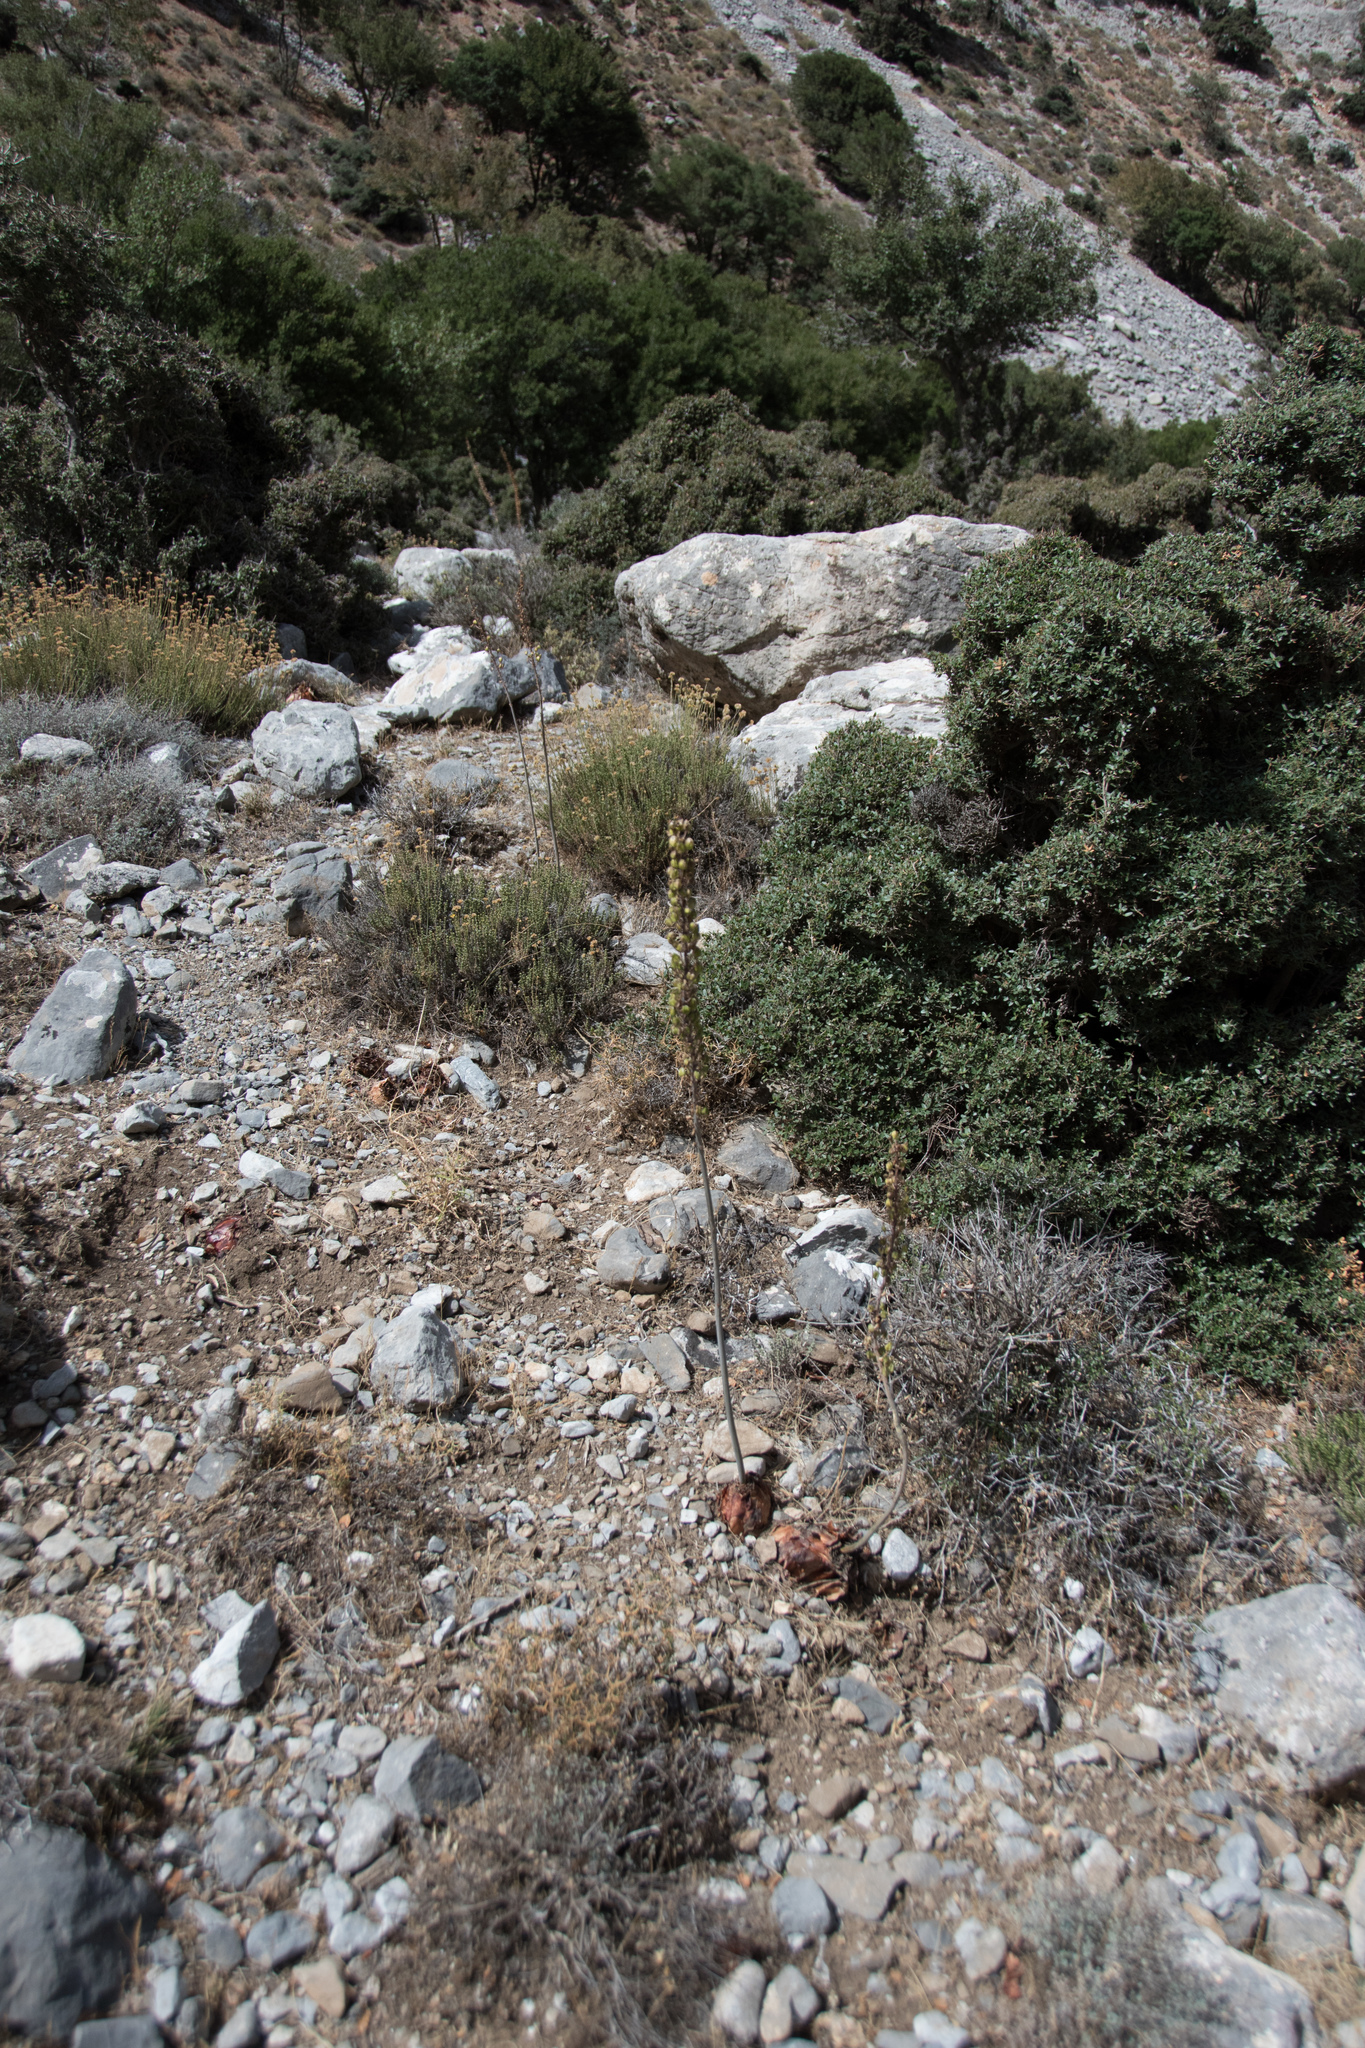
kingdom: Plantae
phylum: Tracheophyta
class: Liliopsida
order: Asparagales
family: Asparagaceae
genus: Drimia
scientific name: Drimia numidica
